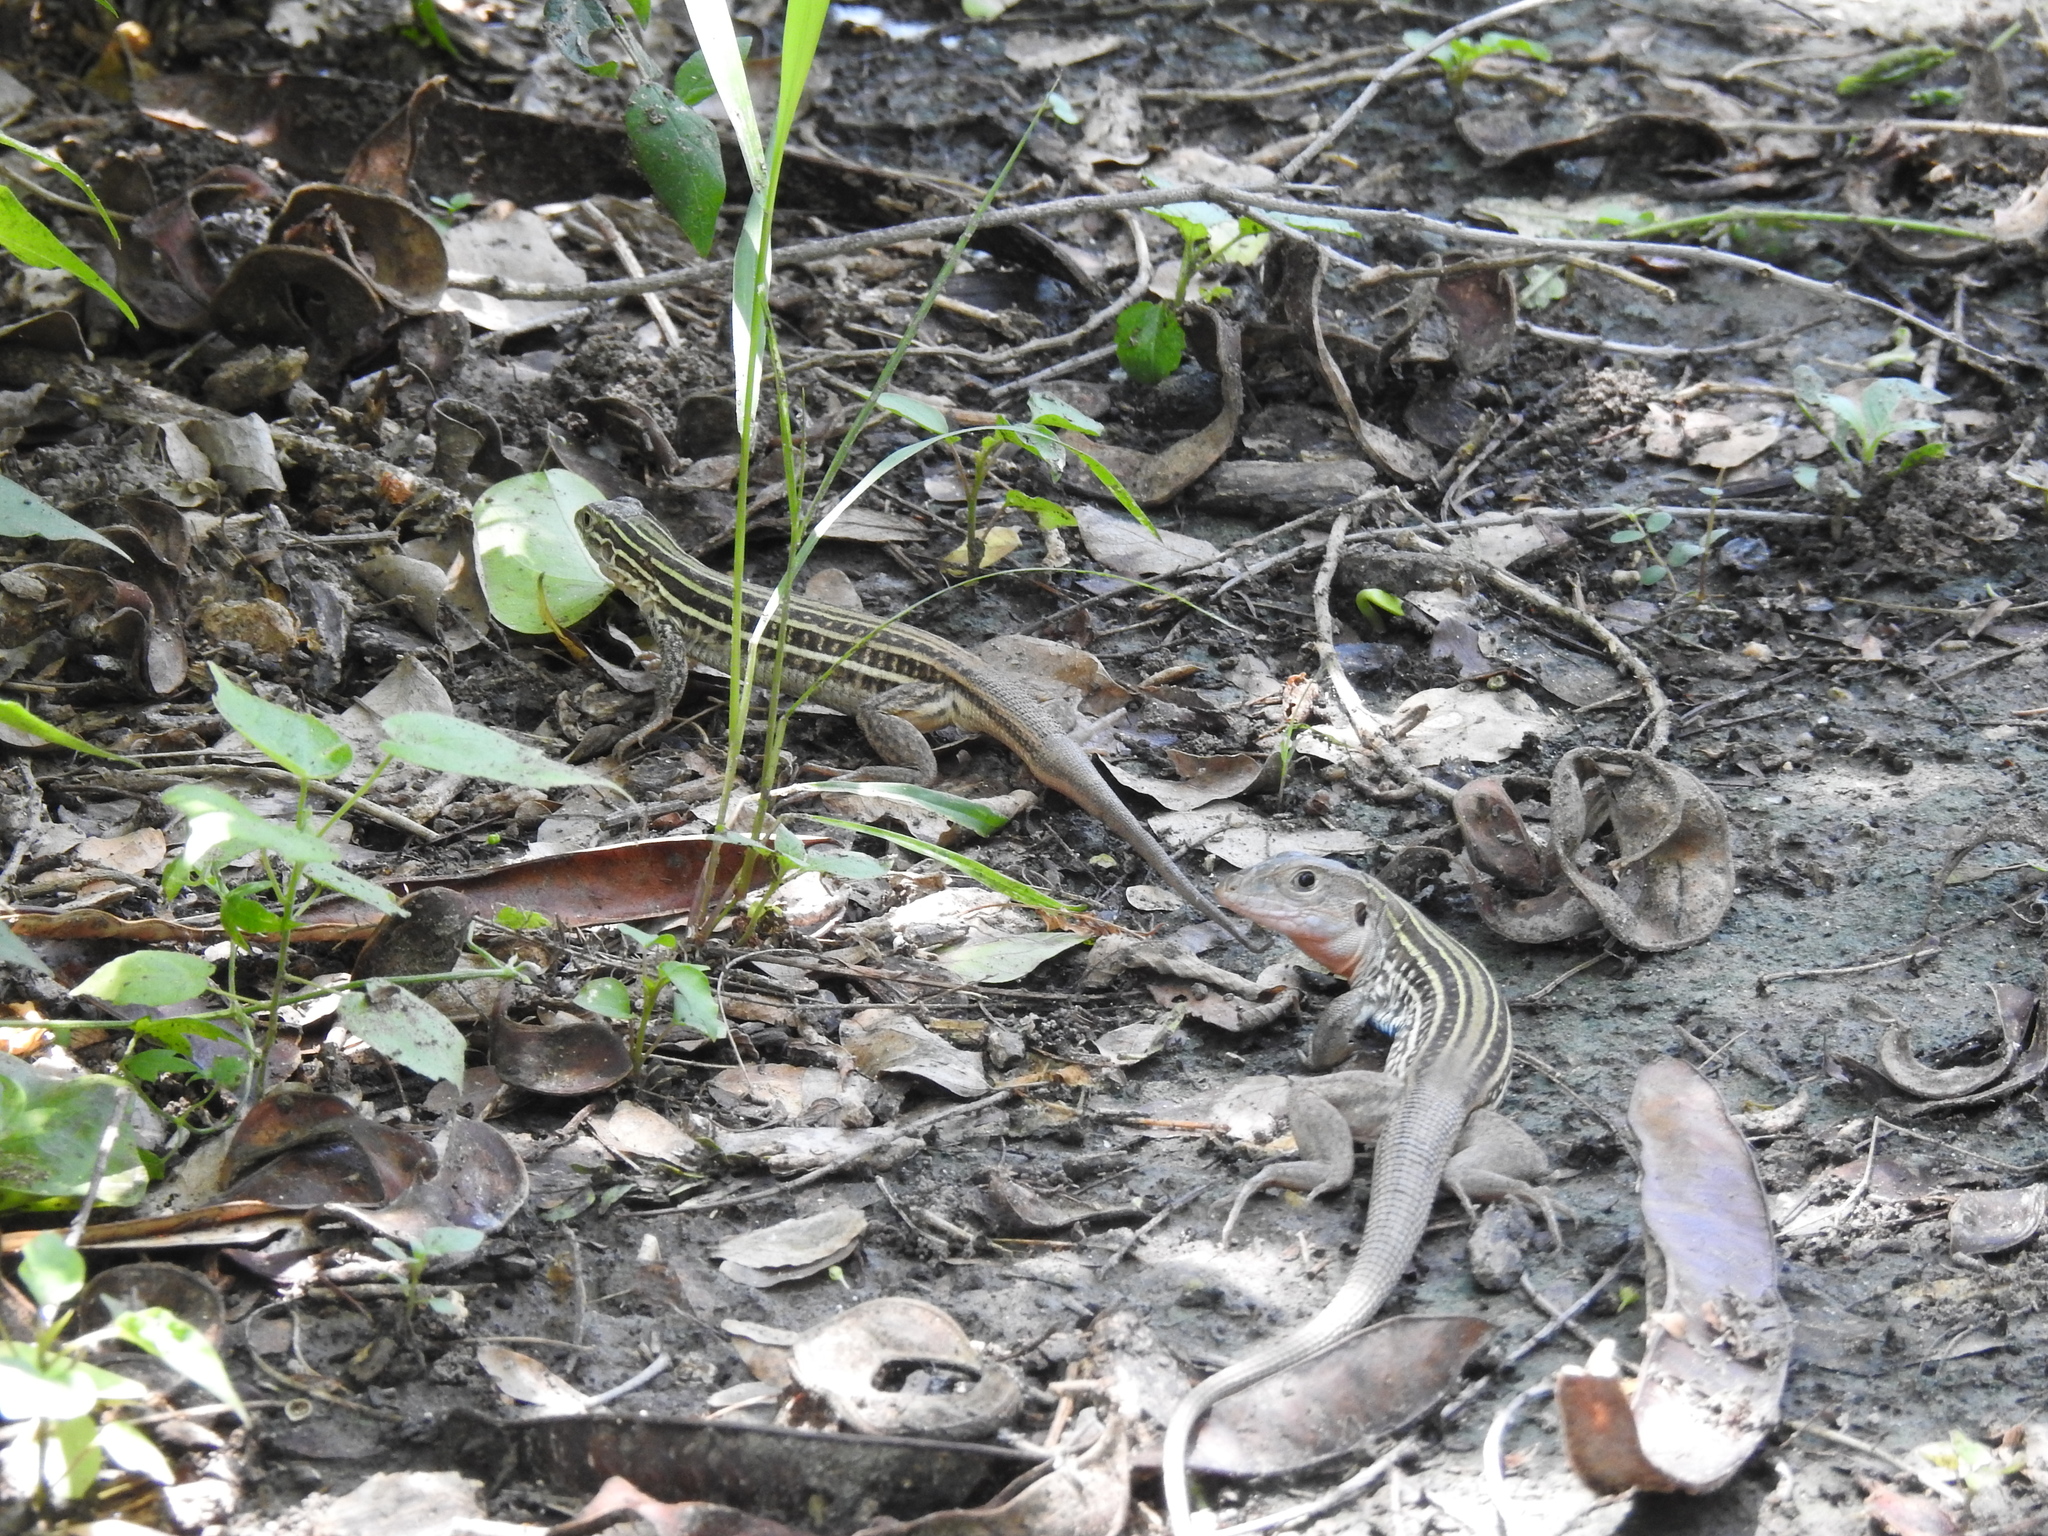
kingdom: Animalia
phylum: Chordata
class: Squamata
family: Teiidae
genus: Aspidoscelis
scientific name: Aspidoscelis gularis
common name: Eastern spotted whiptail
